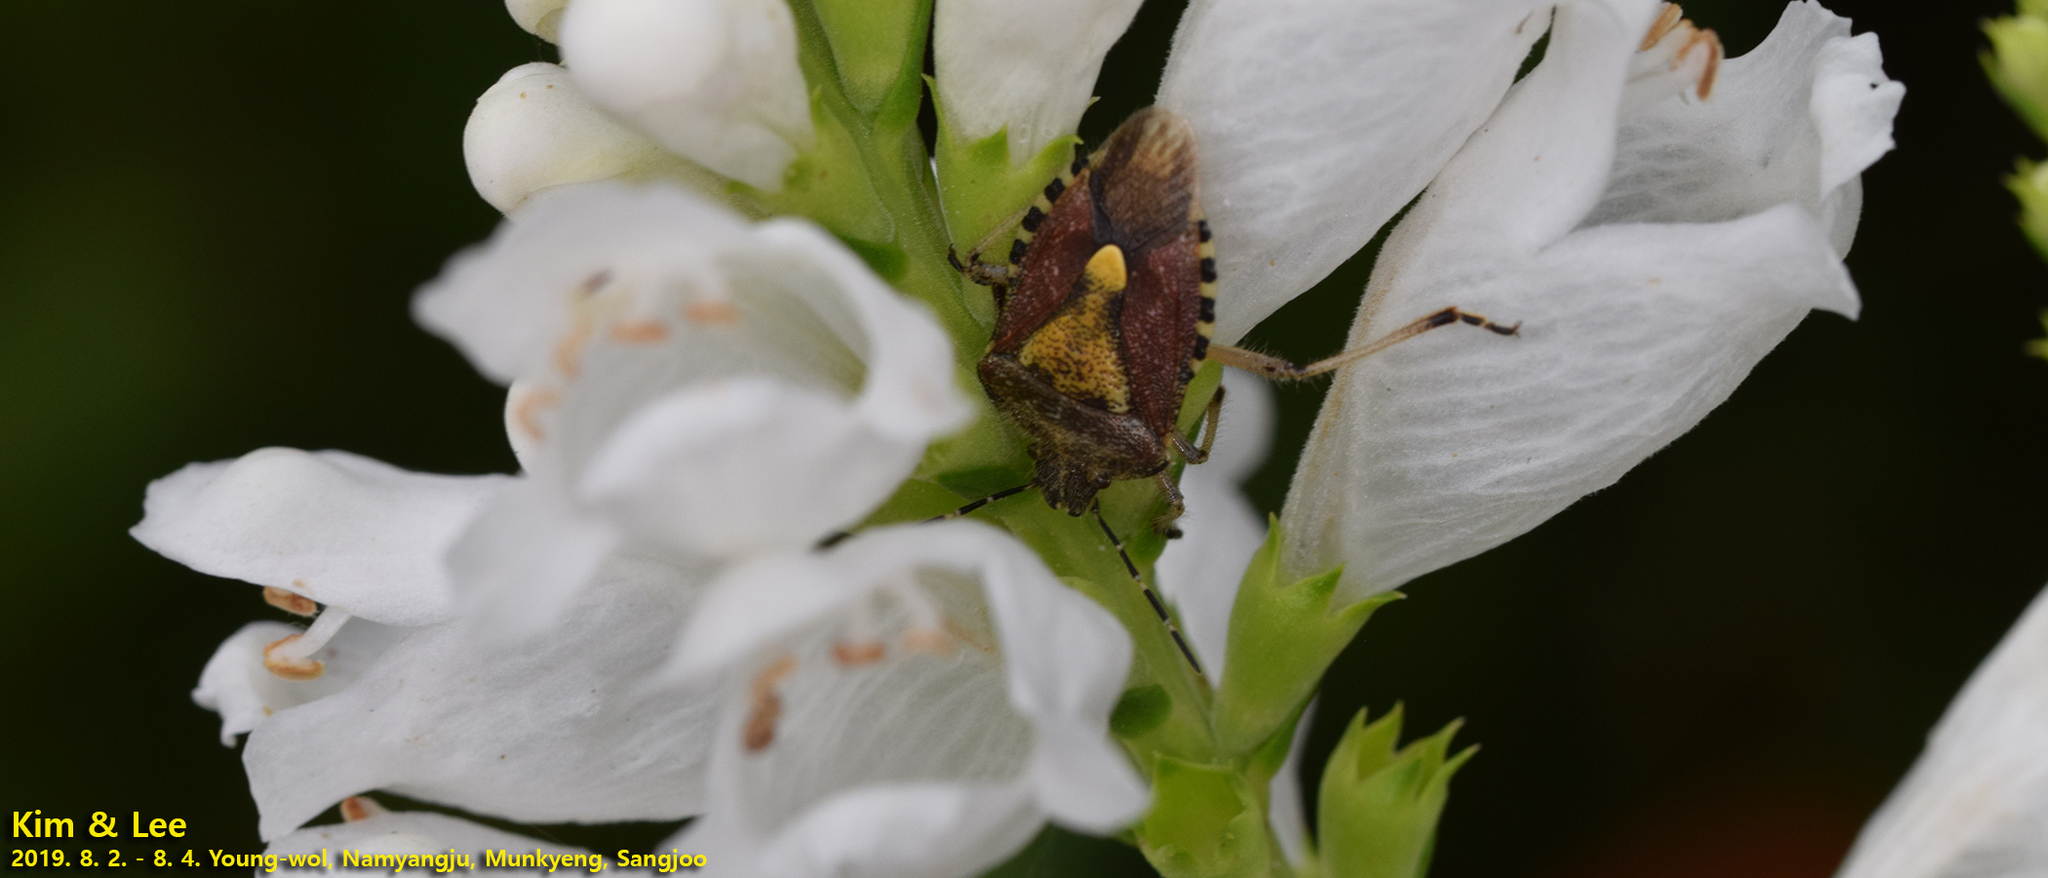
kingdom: Animalia
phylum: Arthropoda
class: Insecta
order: Hemiptera
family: Pentatomidae
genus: Dolycoris
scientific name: Dolycoris baccarum
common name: Sloe bug
